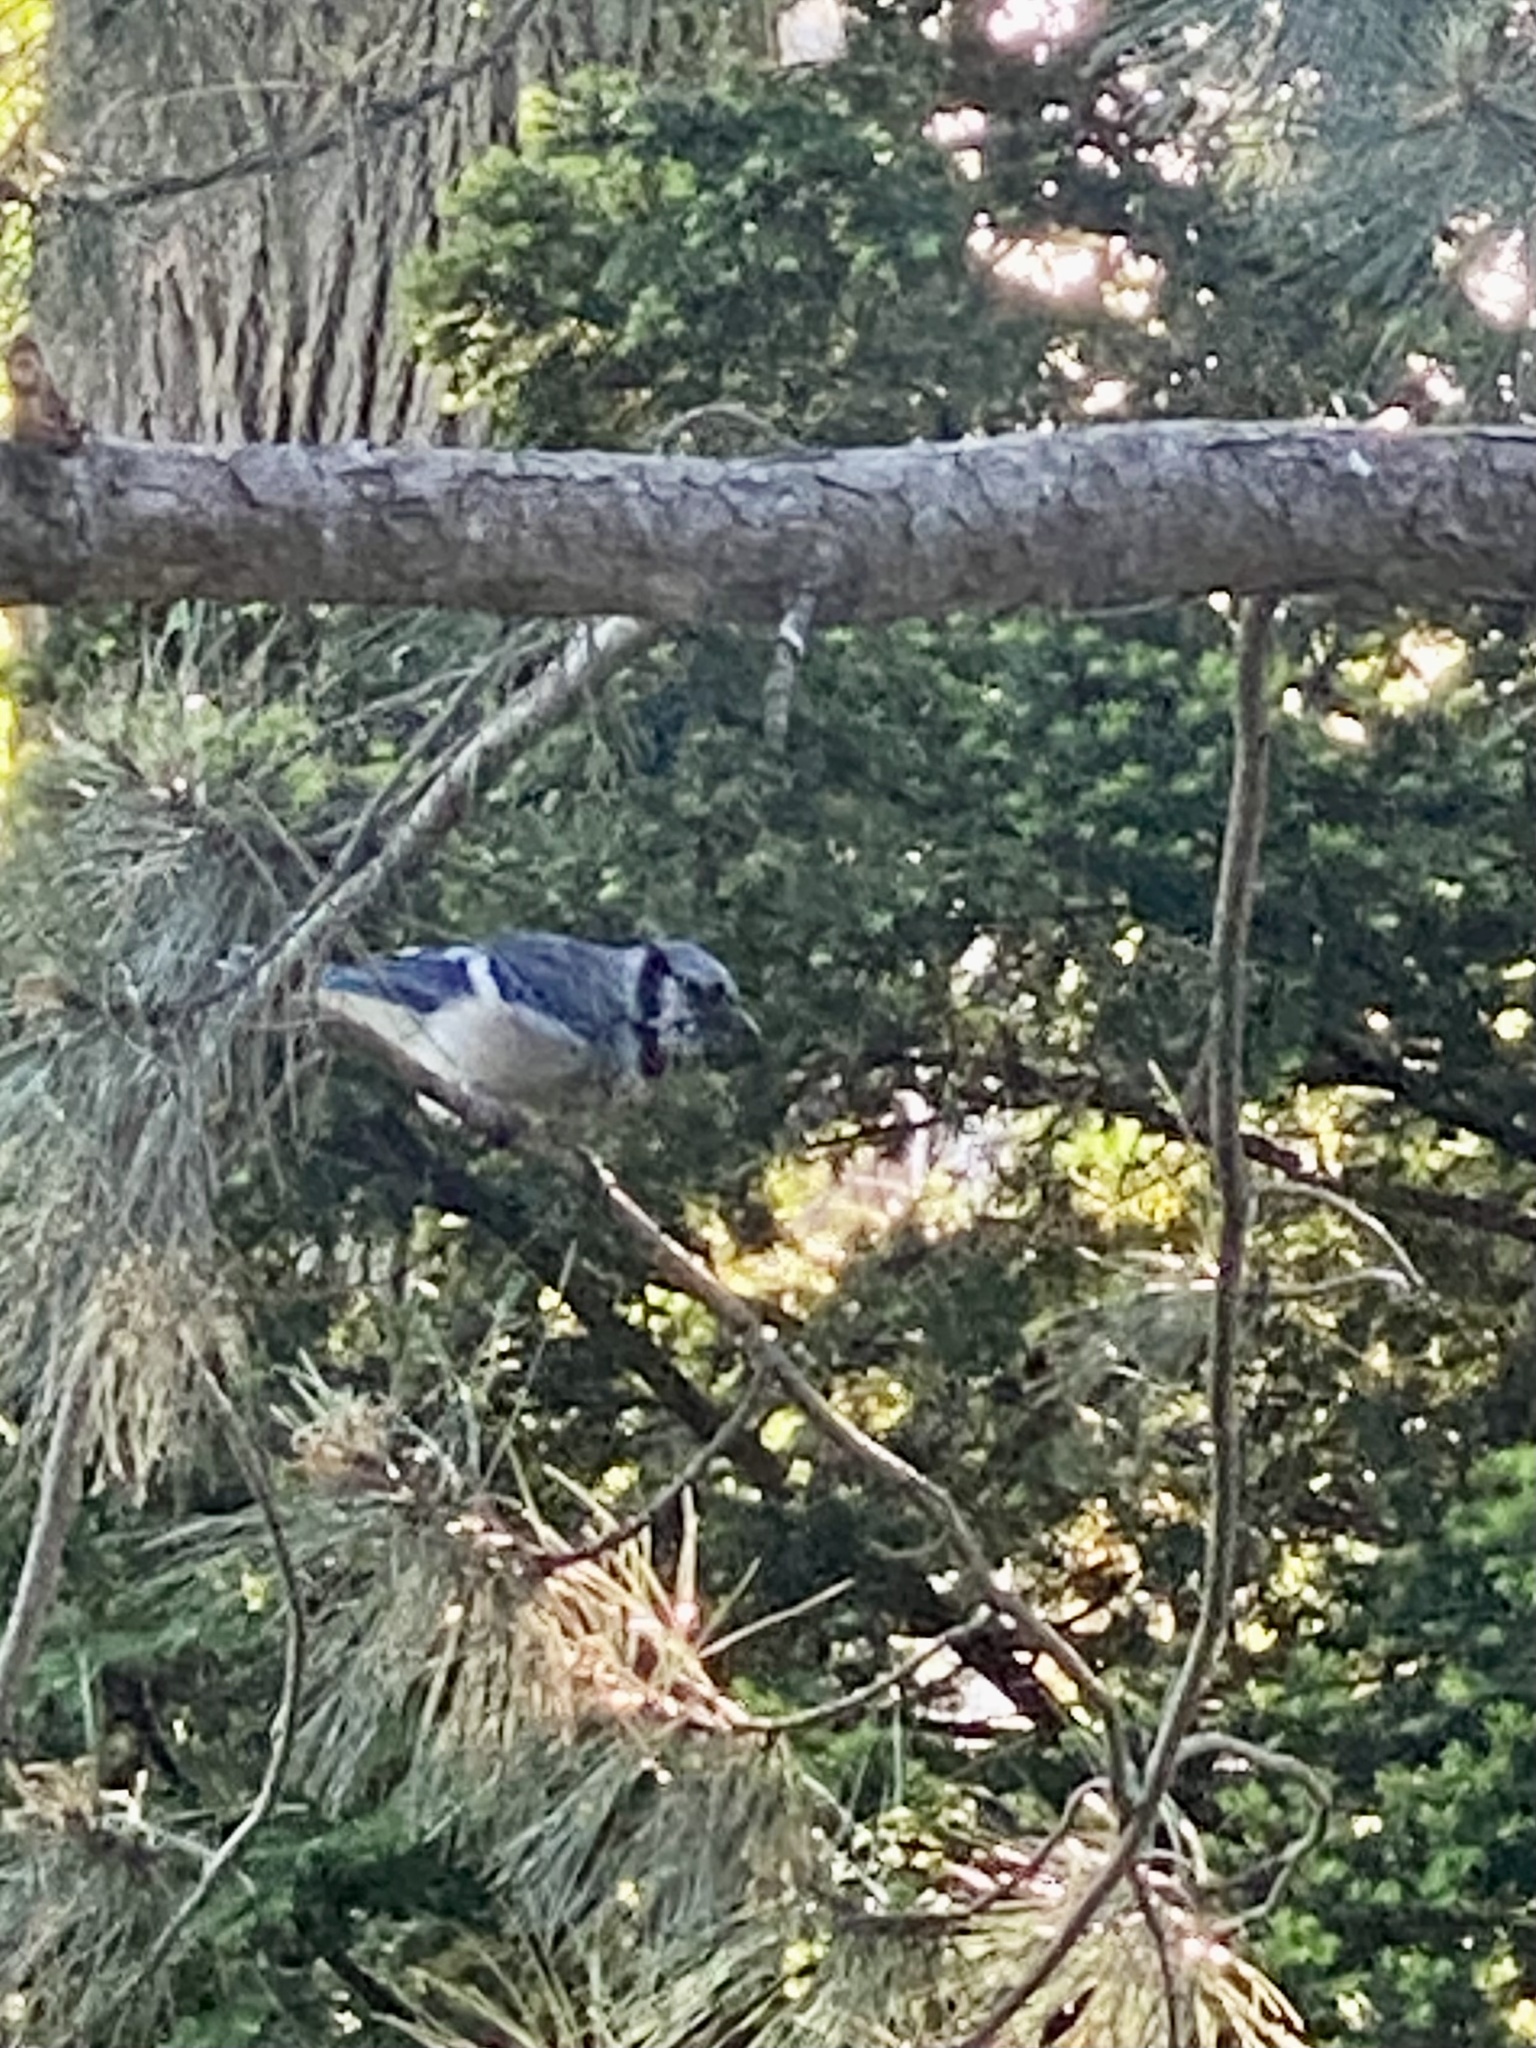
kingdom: Animalia
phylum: Chordata
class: Aves
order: Passeriformes
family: Corvidae
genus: Cyanocitta
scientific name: Cyanocitta cristata
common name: Blue jay
